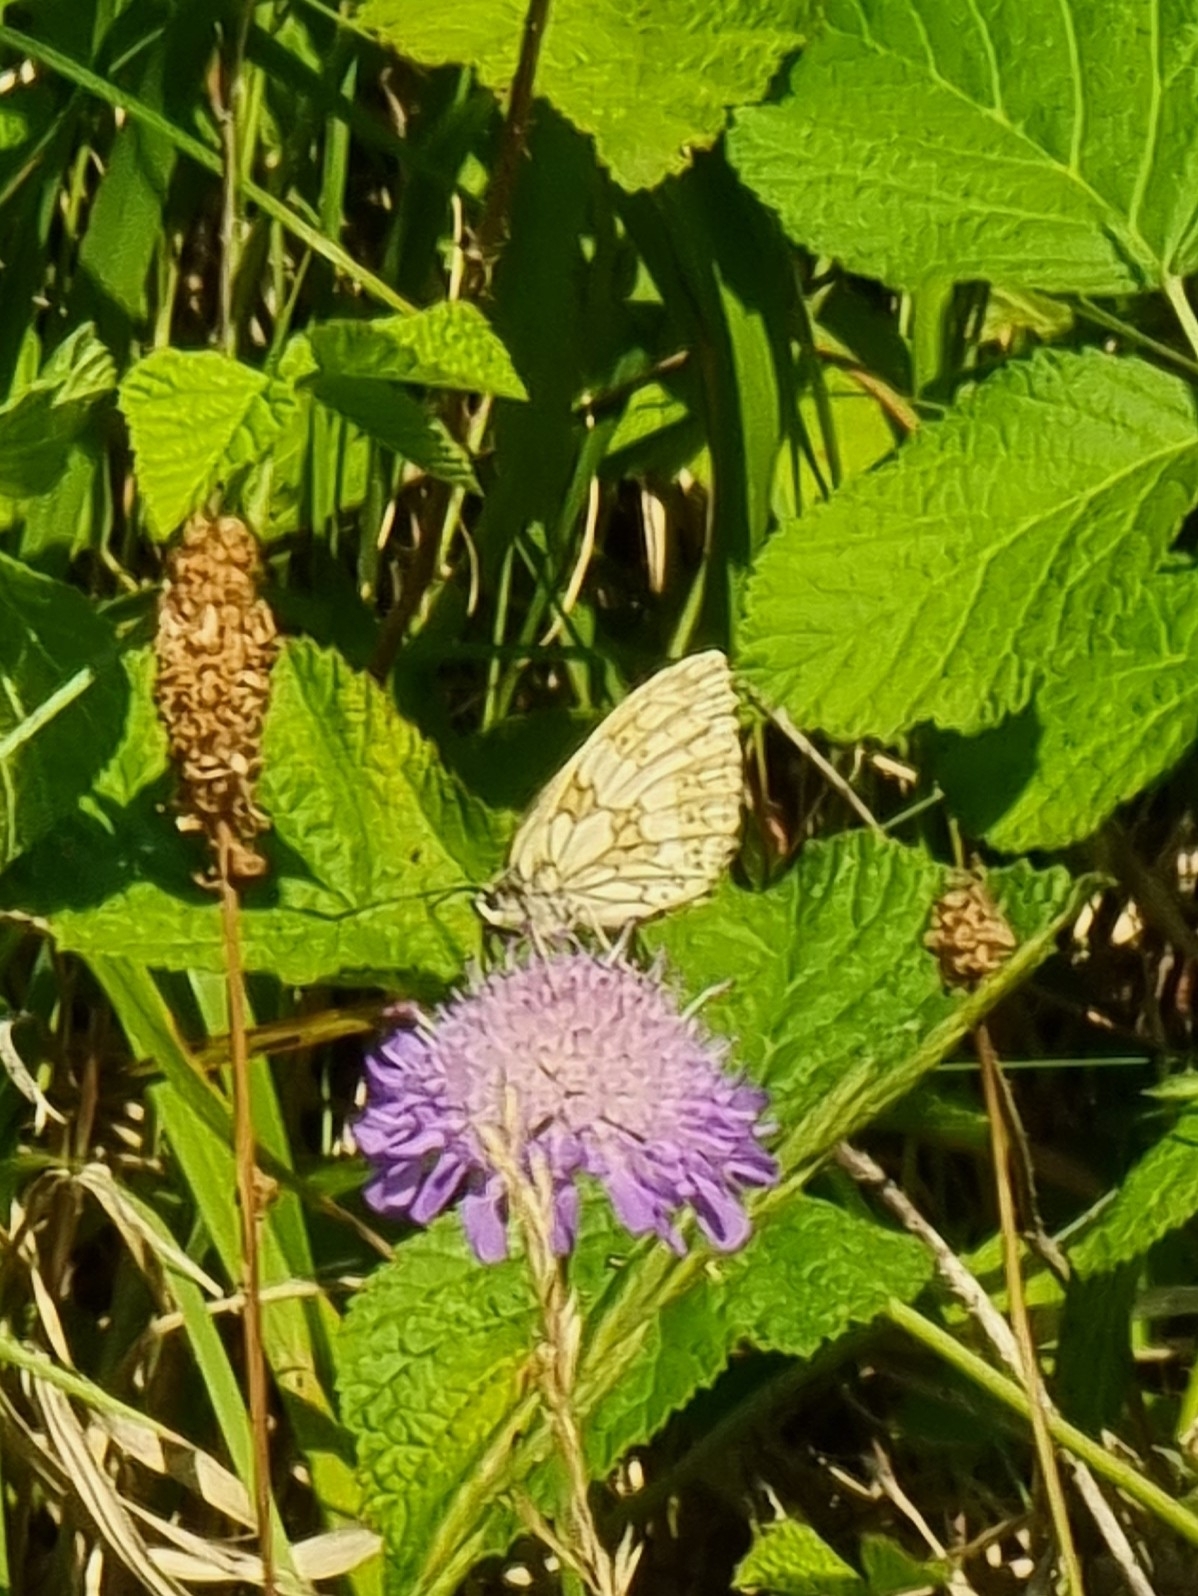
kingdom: Animalia
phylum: Arthropoda
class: Insecta
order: Lepidoptera
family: Nymphalidae
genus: Melanargia
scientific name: Melanargia galathea
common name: Marbled white
